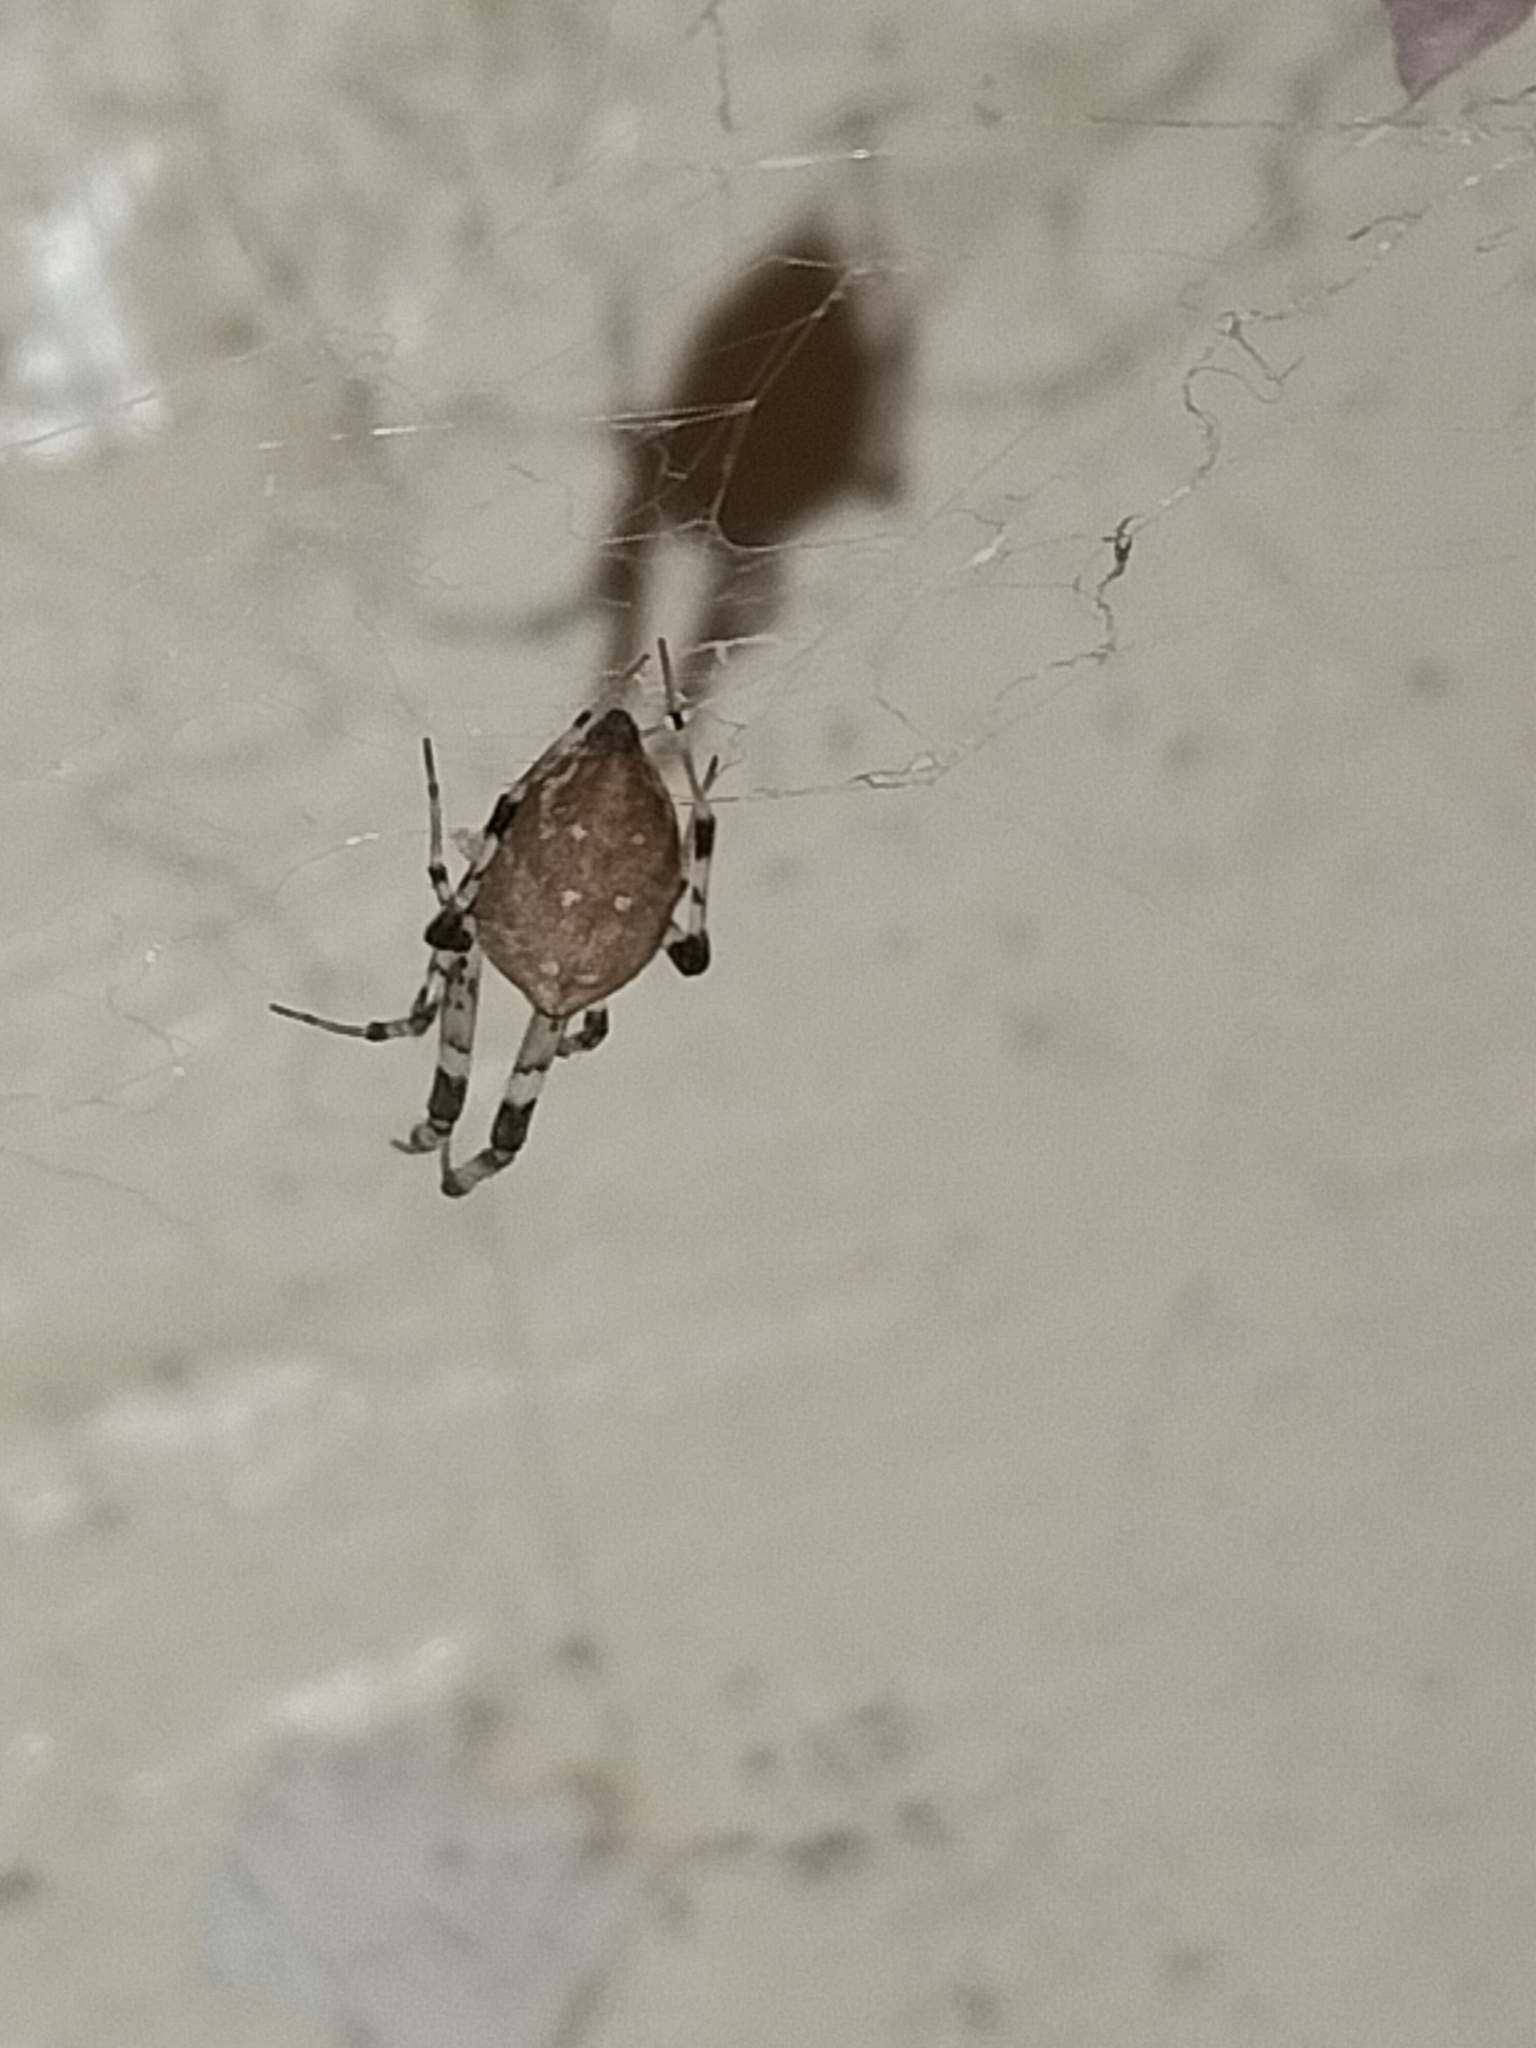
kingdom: Animalia
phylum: Arthropoda
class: Arachnida
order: Araneae
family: Uloboridae
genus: Zosis
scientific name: Zosis geniculata
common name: Hackled orb weavers
